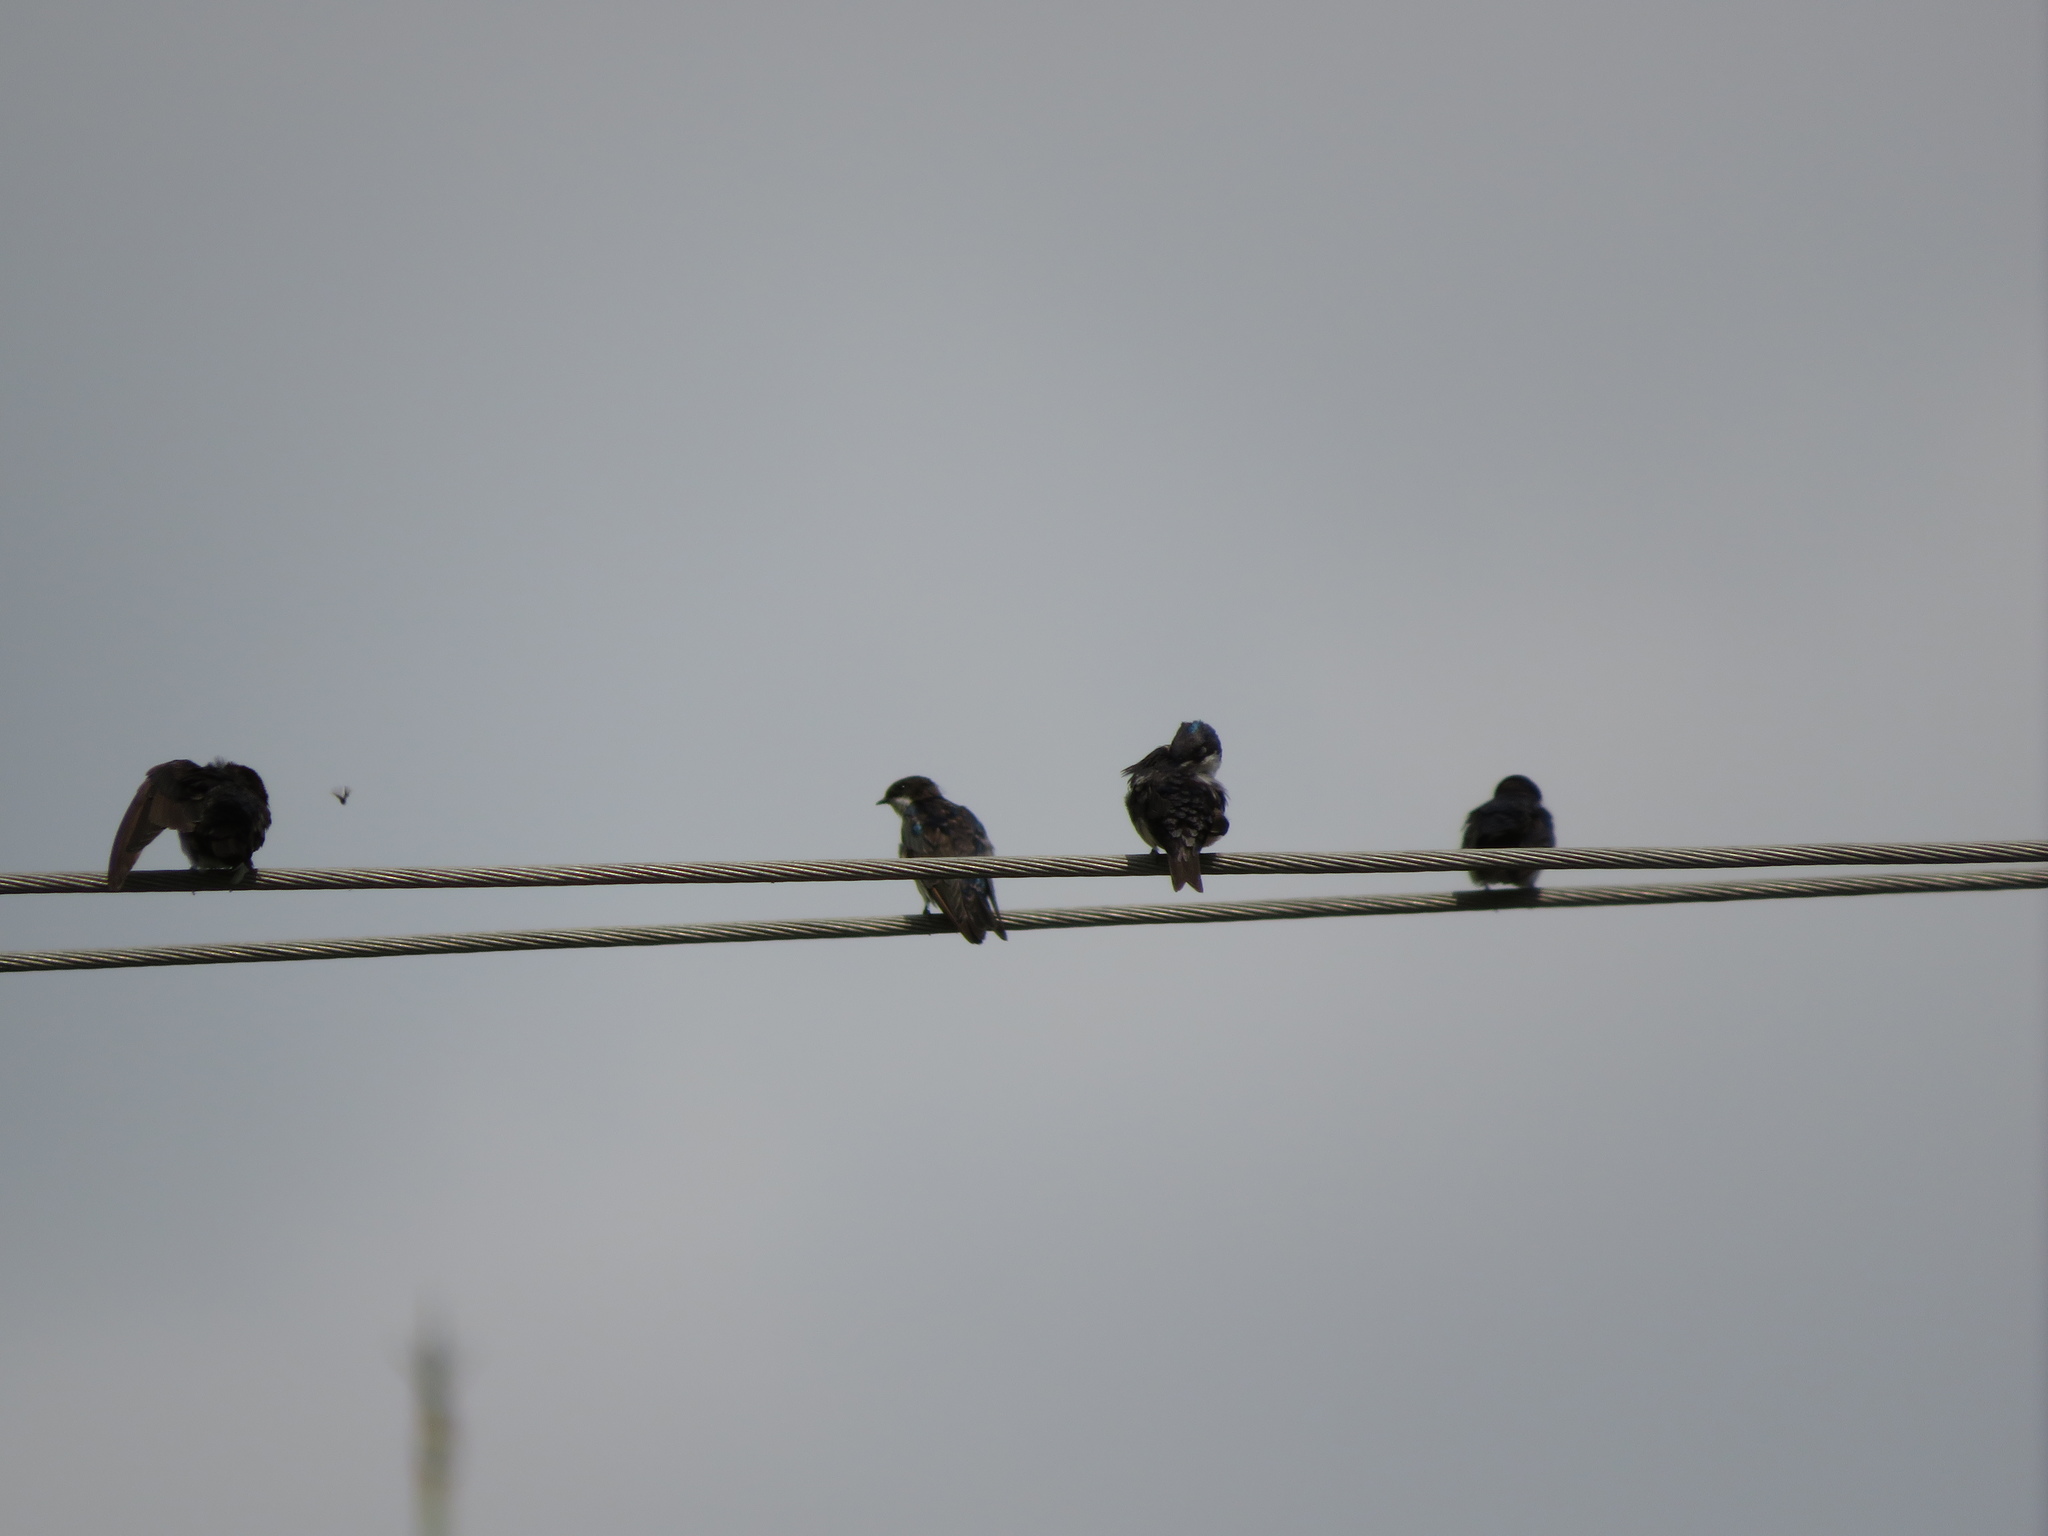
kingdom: Animalia
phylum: Chordata
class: Aves
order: Passeriformes
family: Hirundinidae
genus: Notiochelidon
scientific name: Notiochelidon cyanoleuca
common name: Blue-and-white swallow
